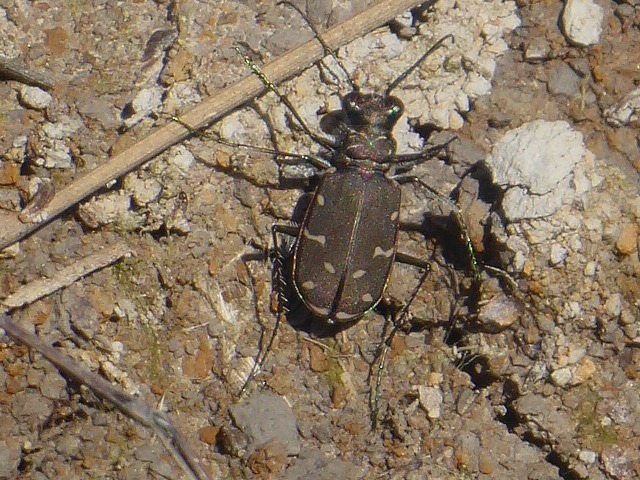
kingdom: Animalia
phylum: Arthropoda
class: Insecta
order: Coleoptera
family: Carabidae
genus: Cicindela
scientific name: Cicindela duodecimguttata
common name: Twelve-spotted tiger beetle
